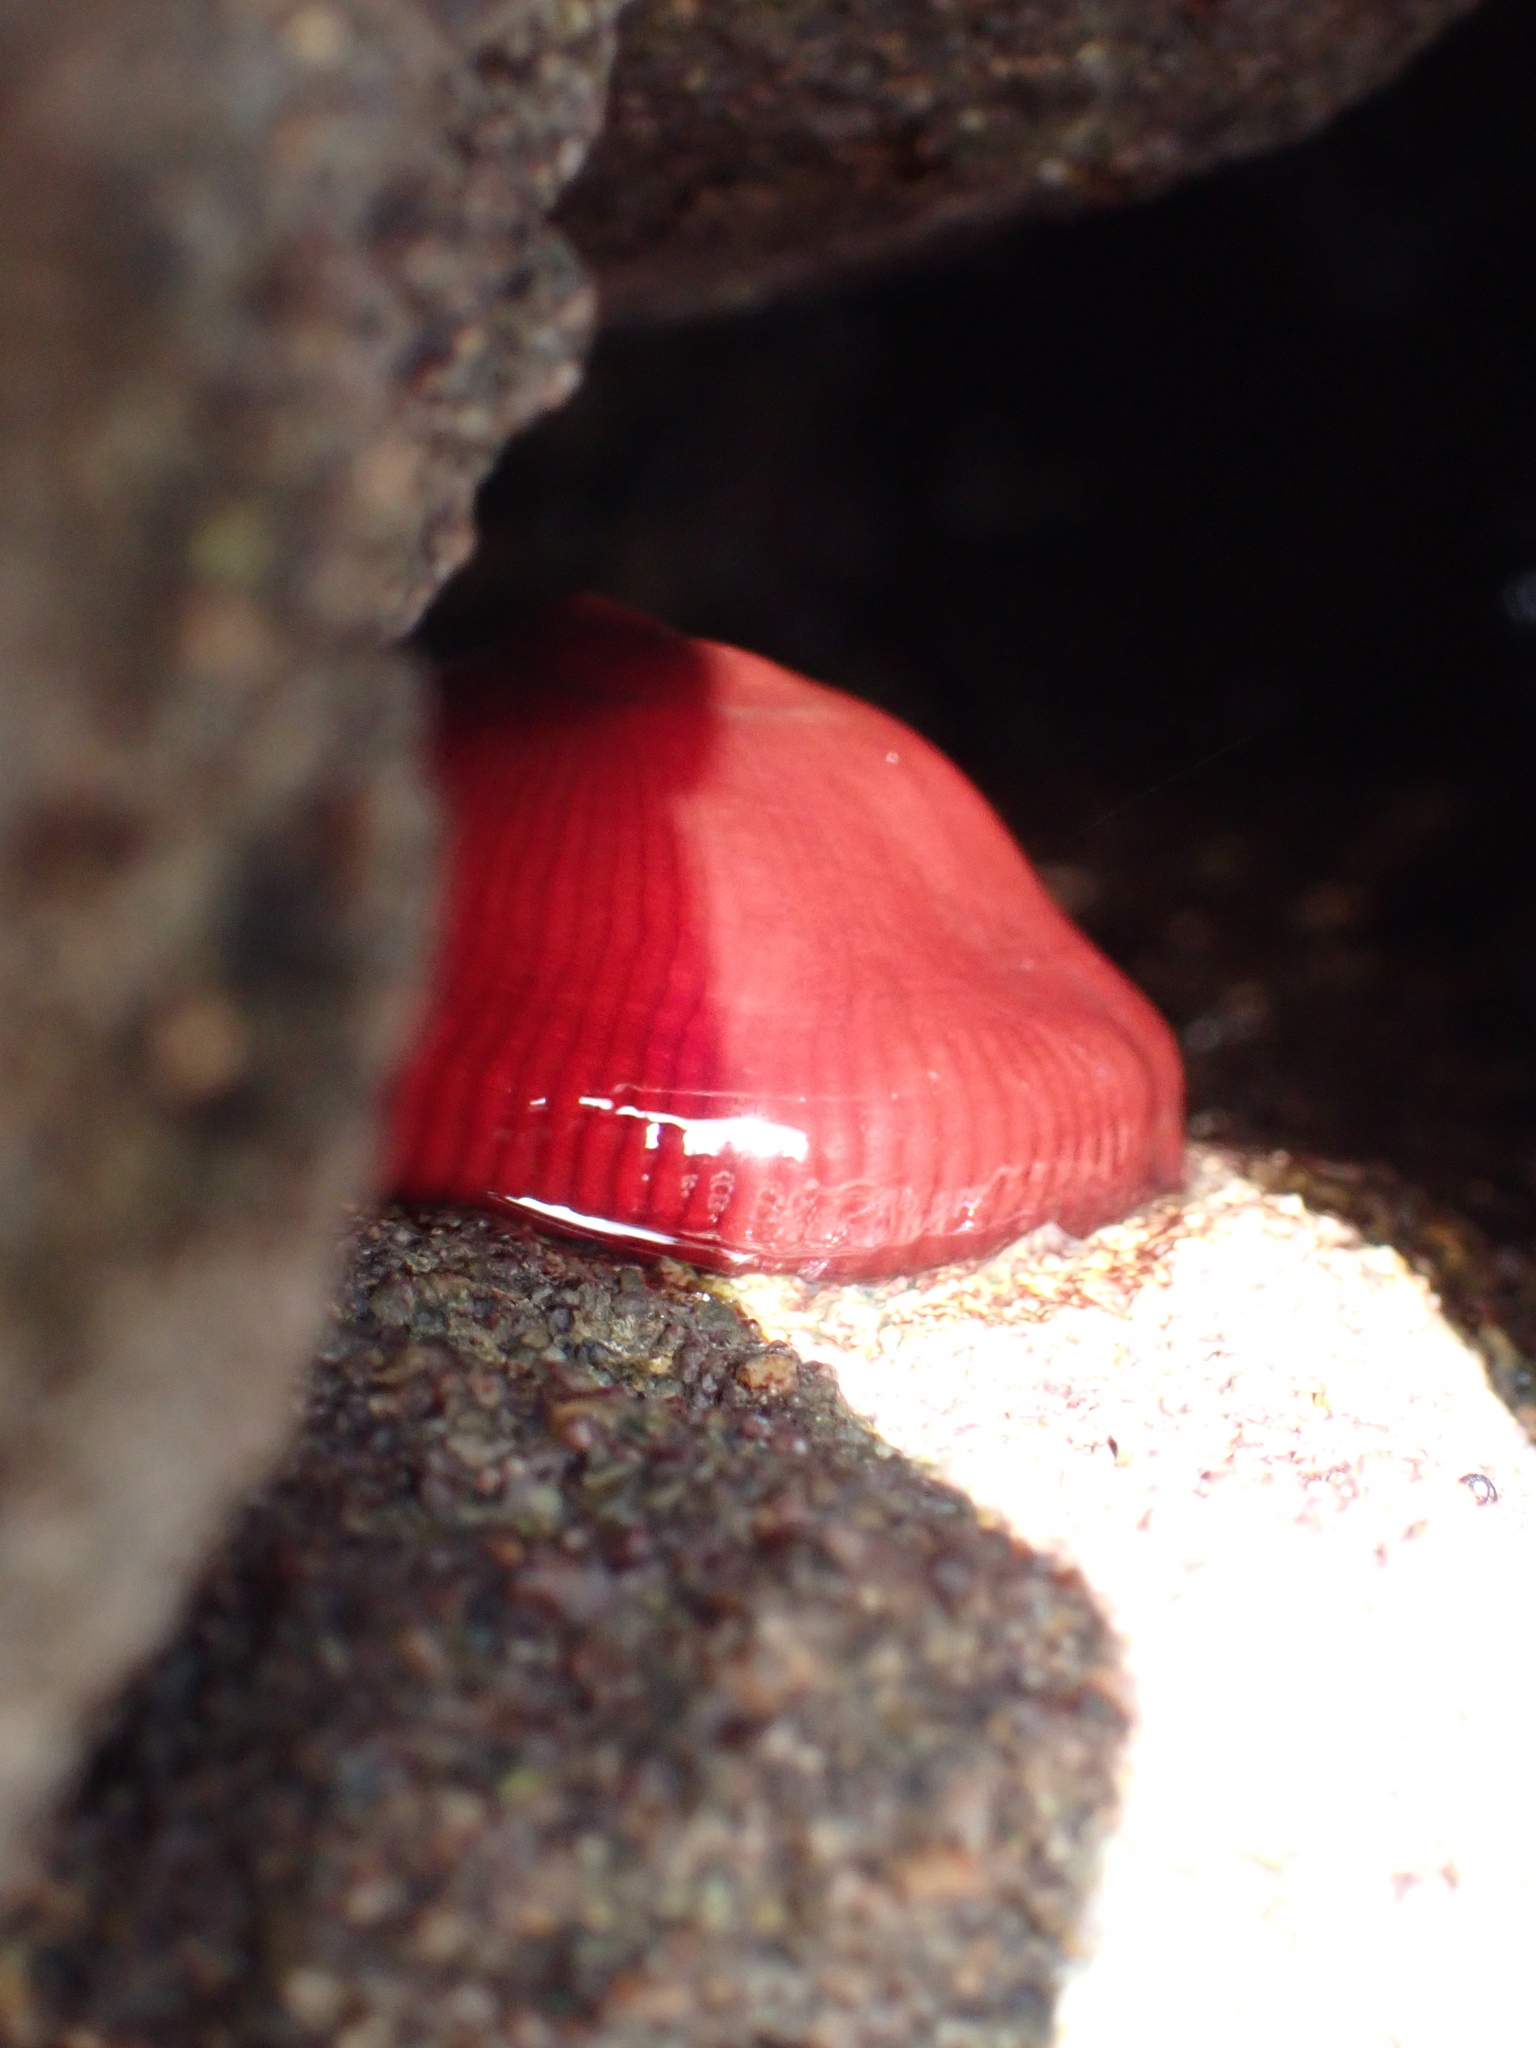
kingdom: Animalia
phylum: Cnidaria
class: Anthozoa
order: Actiniaria
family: Actiniidae
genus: Actinia
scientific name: Actinia tenebrosa
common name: Waratah anemone
